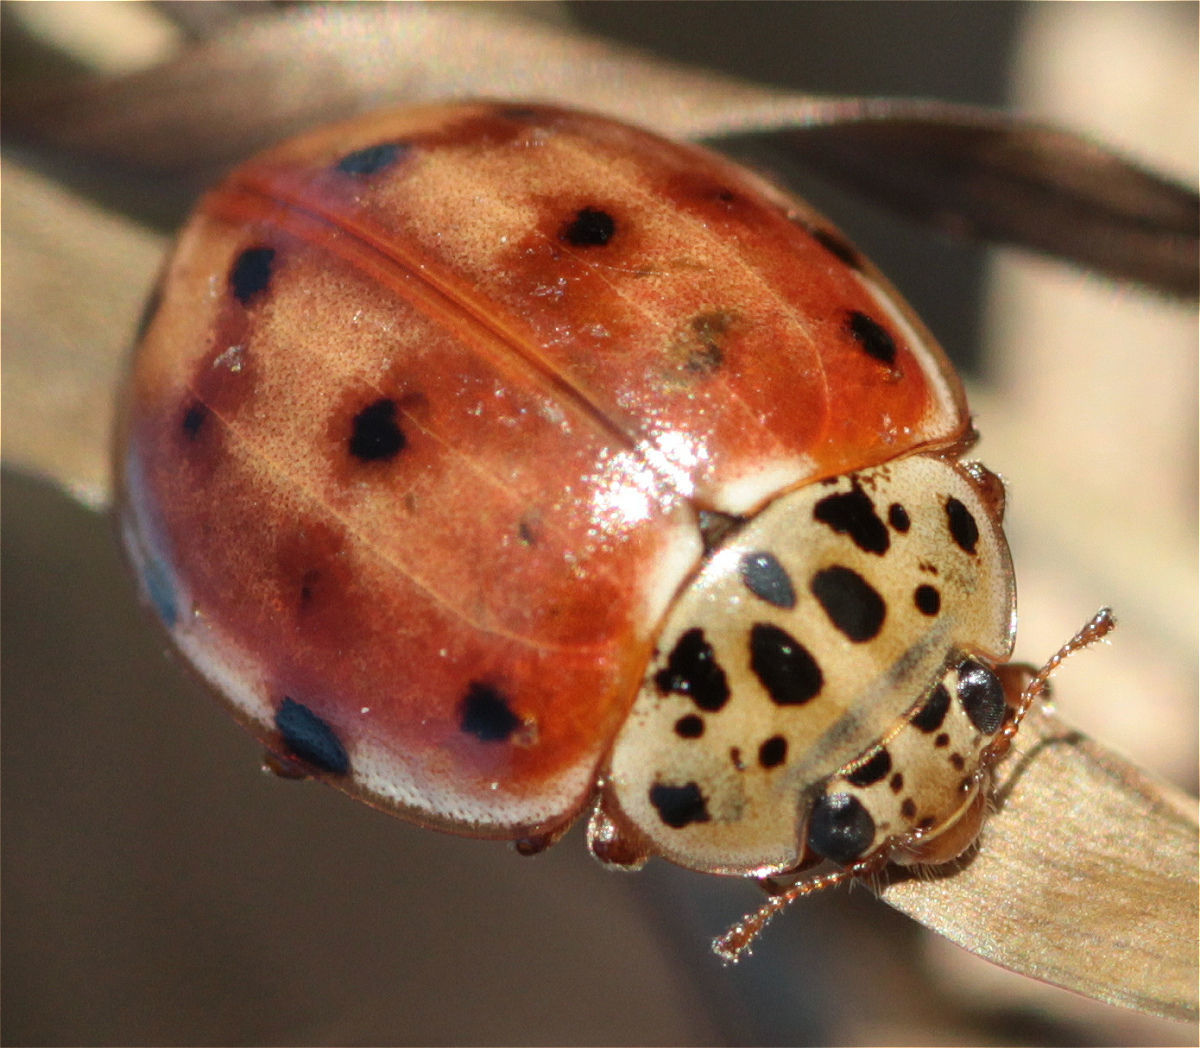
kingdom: Animalia
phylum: Arthropoda
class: Insecta
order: Coleoptera
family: Coccinellidae
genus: Harmonia
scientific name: Harmonia quadripunctata
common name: Cream-streaked ladybird
